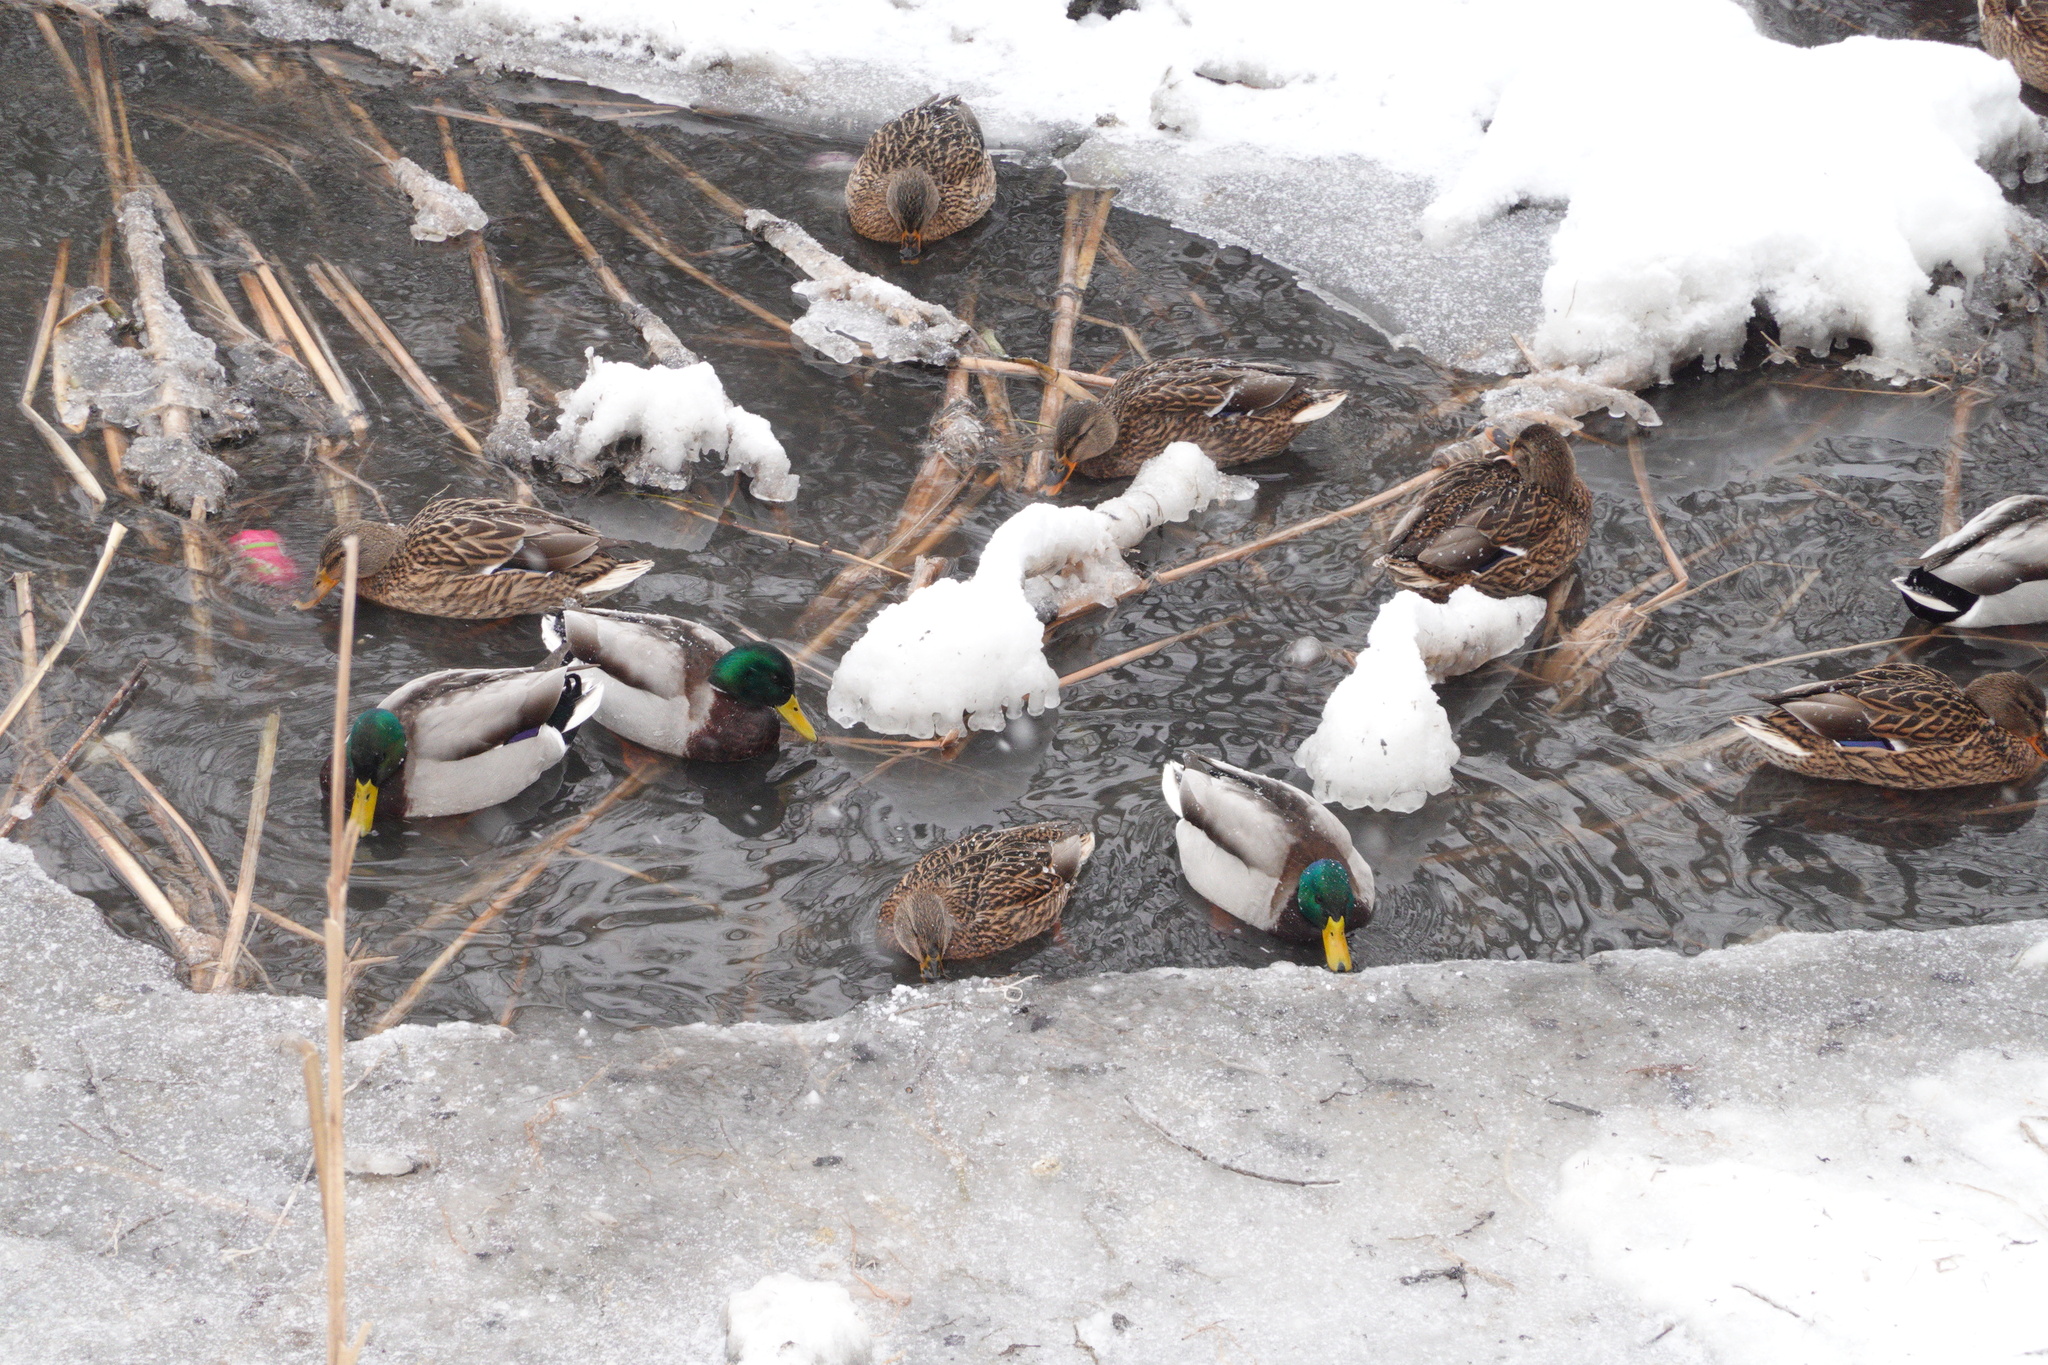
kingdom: Animalia
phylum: Chordata
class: Aves
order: Anseriformes
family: Anatidae
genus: Anas
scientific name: Anas platyrhynchos
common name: Mallard
